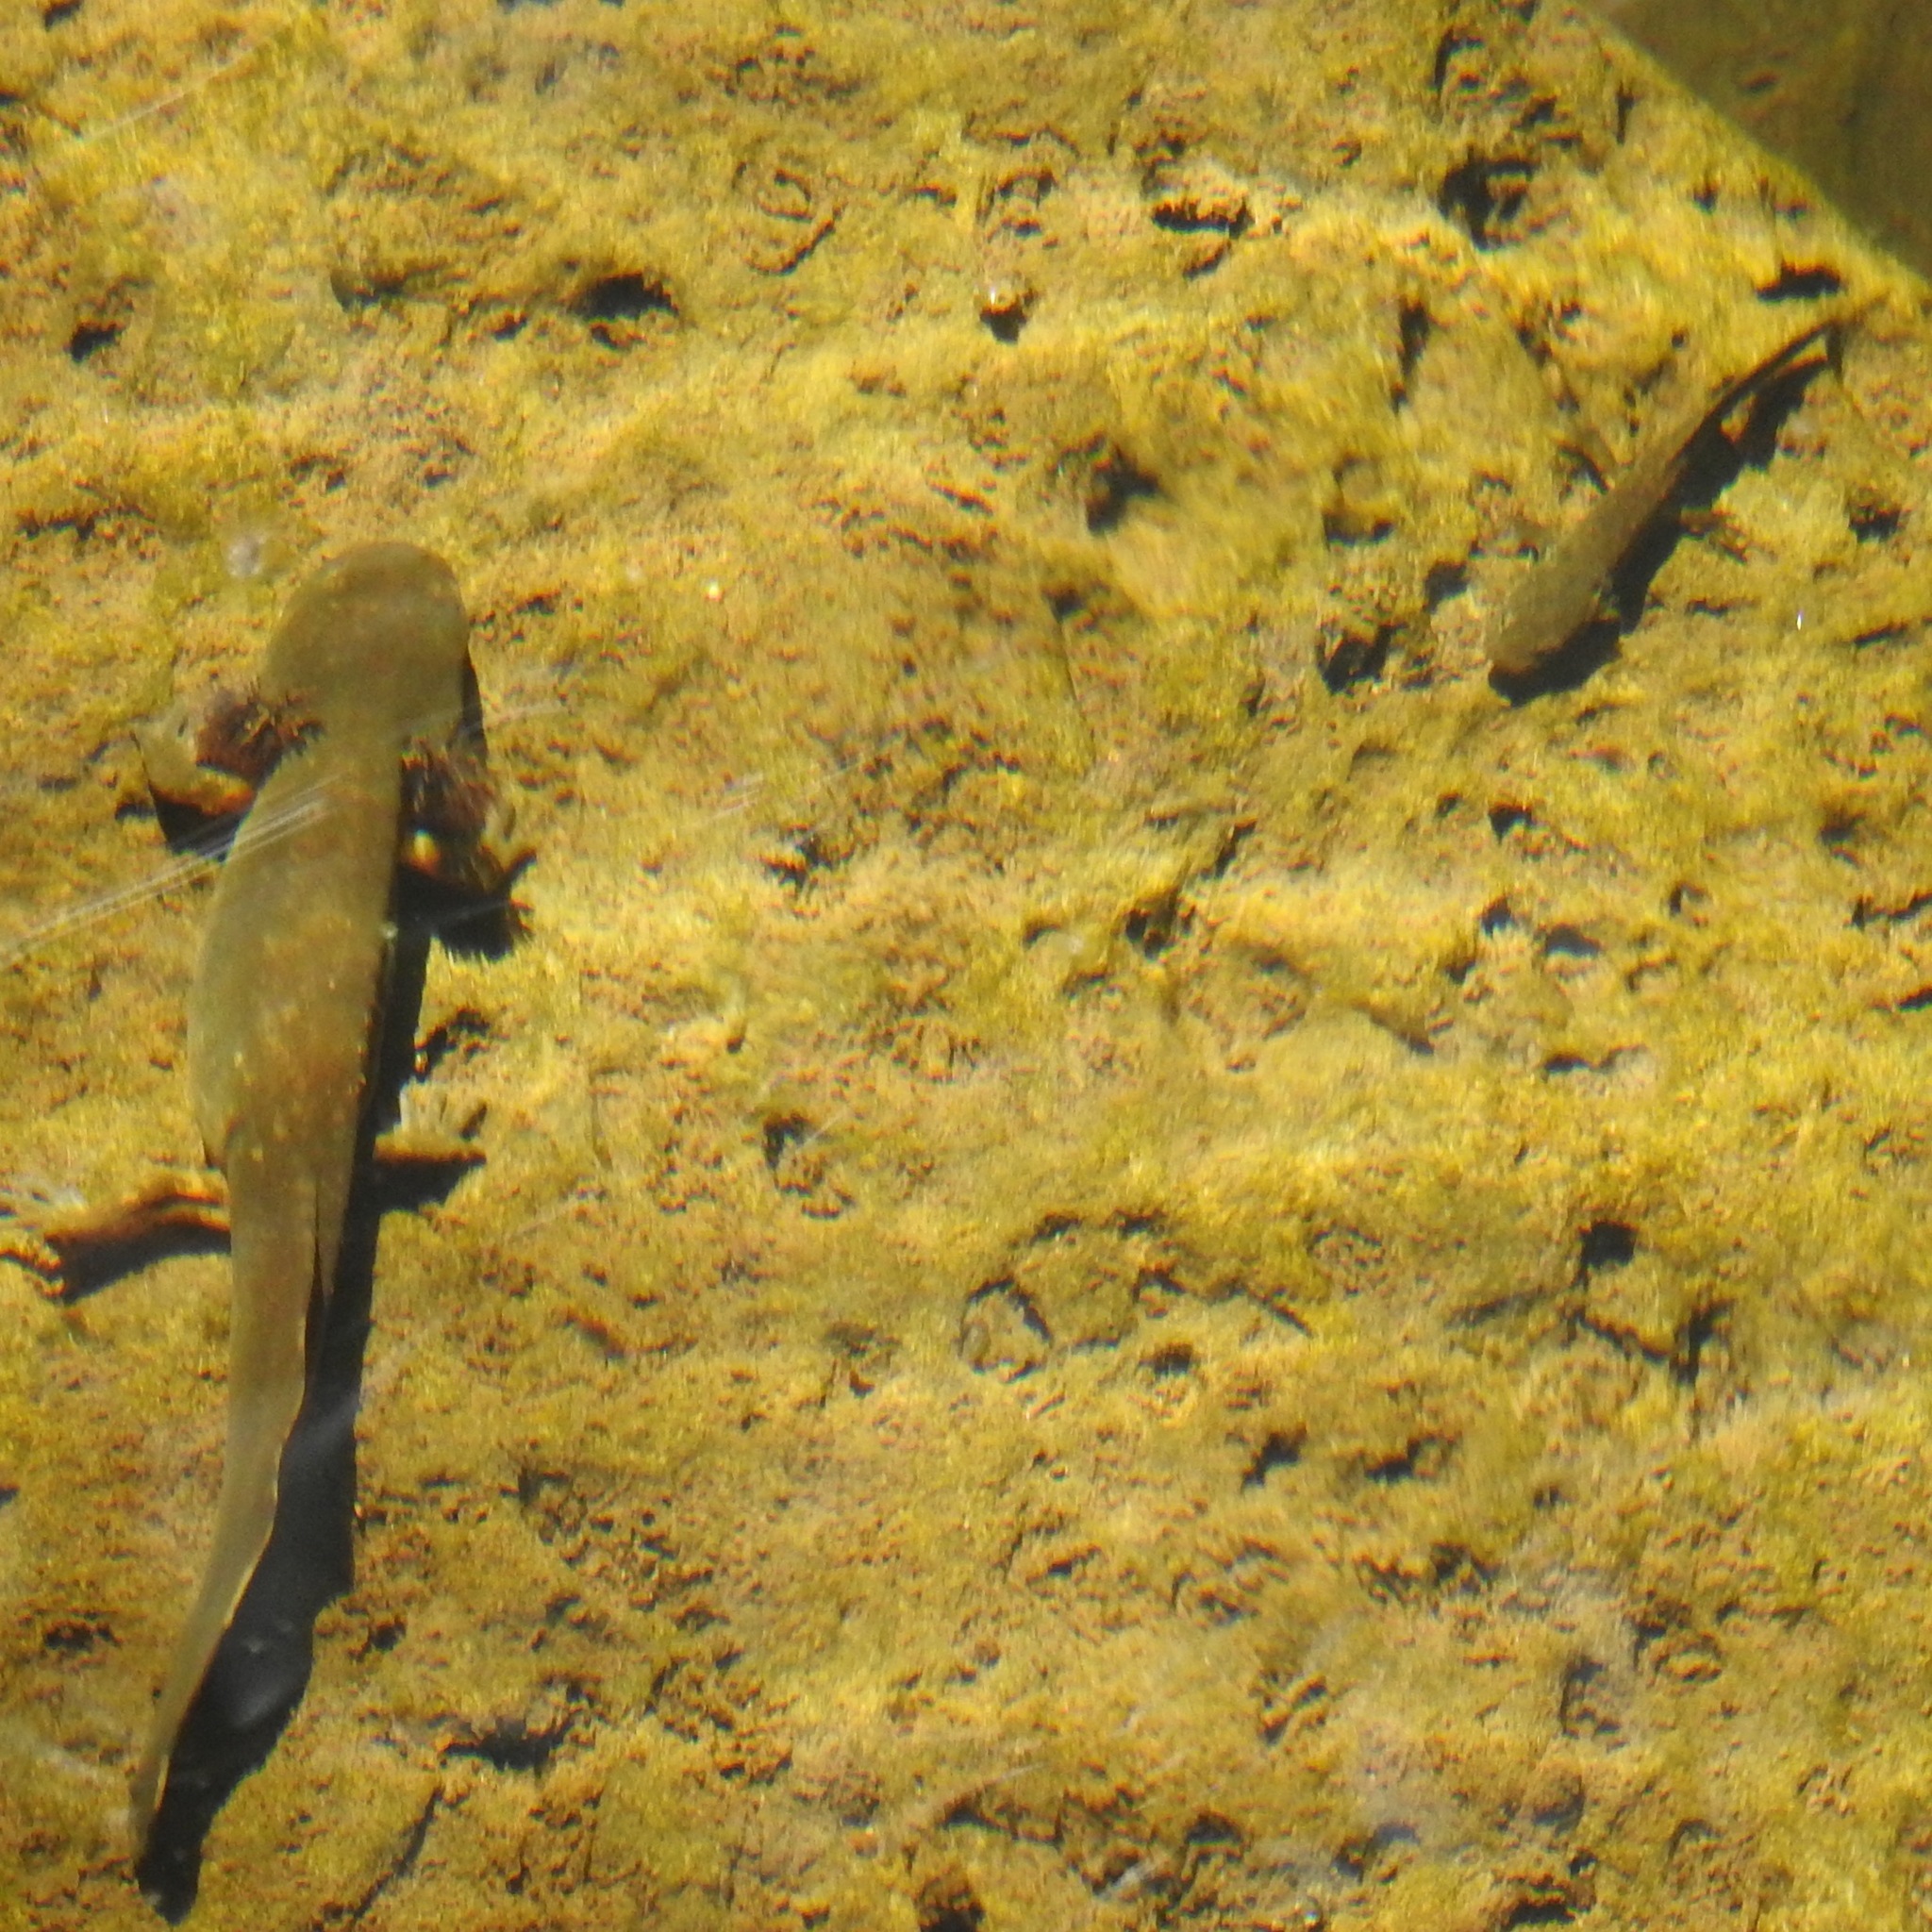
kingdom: Animalia
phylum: Chordata
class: Amphibia
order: Caudata
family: Ambystomatidae
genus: Dicamptodon
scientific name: Dicamptodon ensatus
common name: California giant salamander
